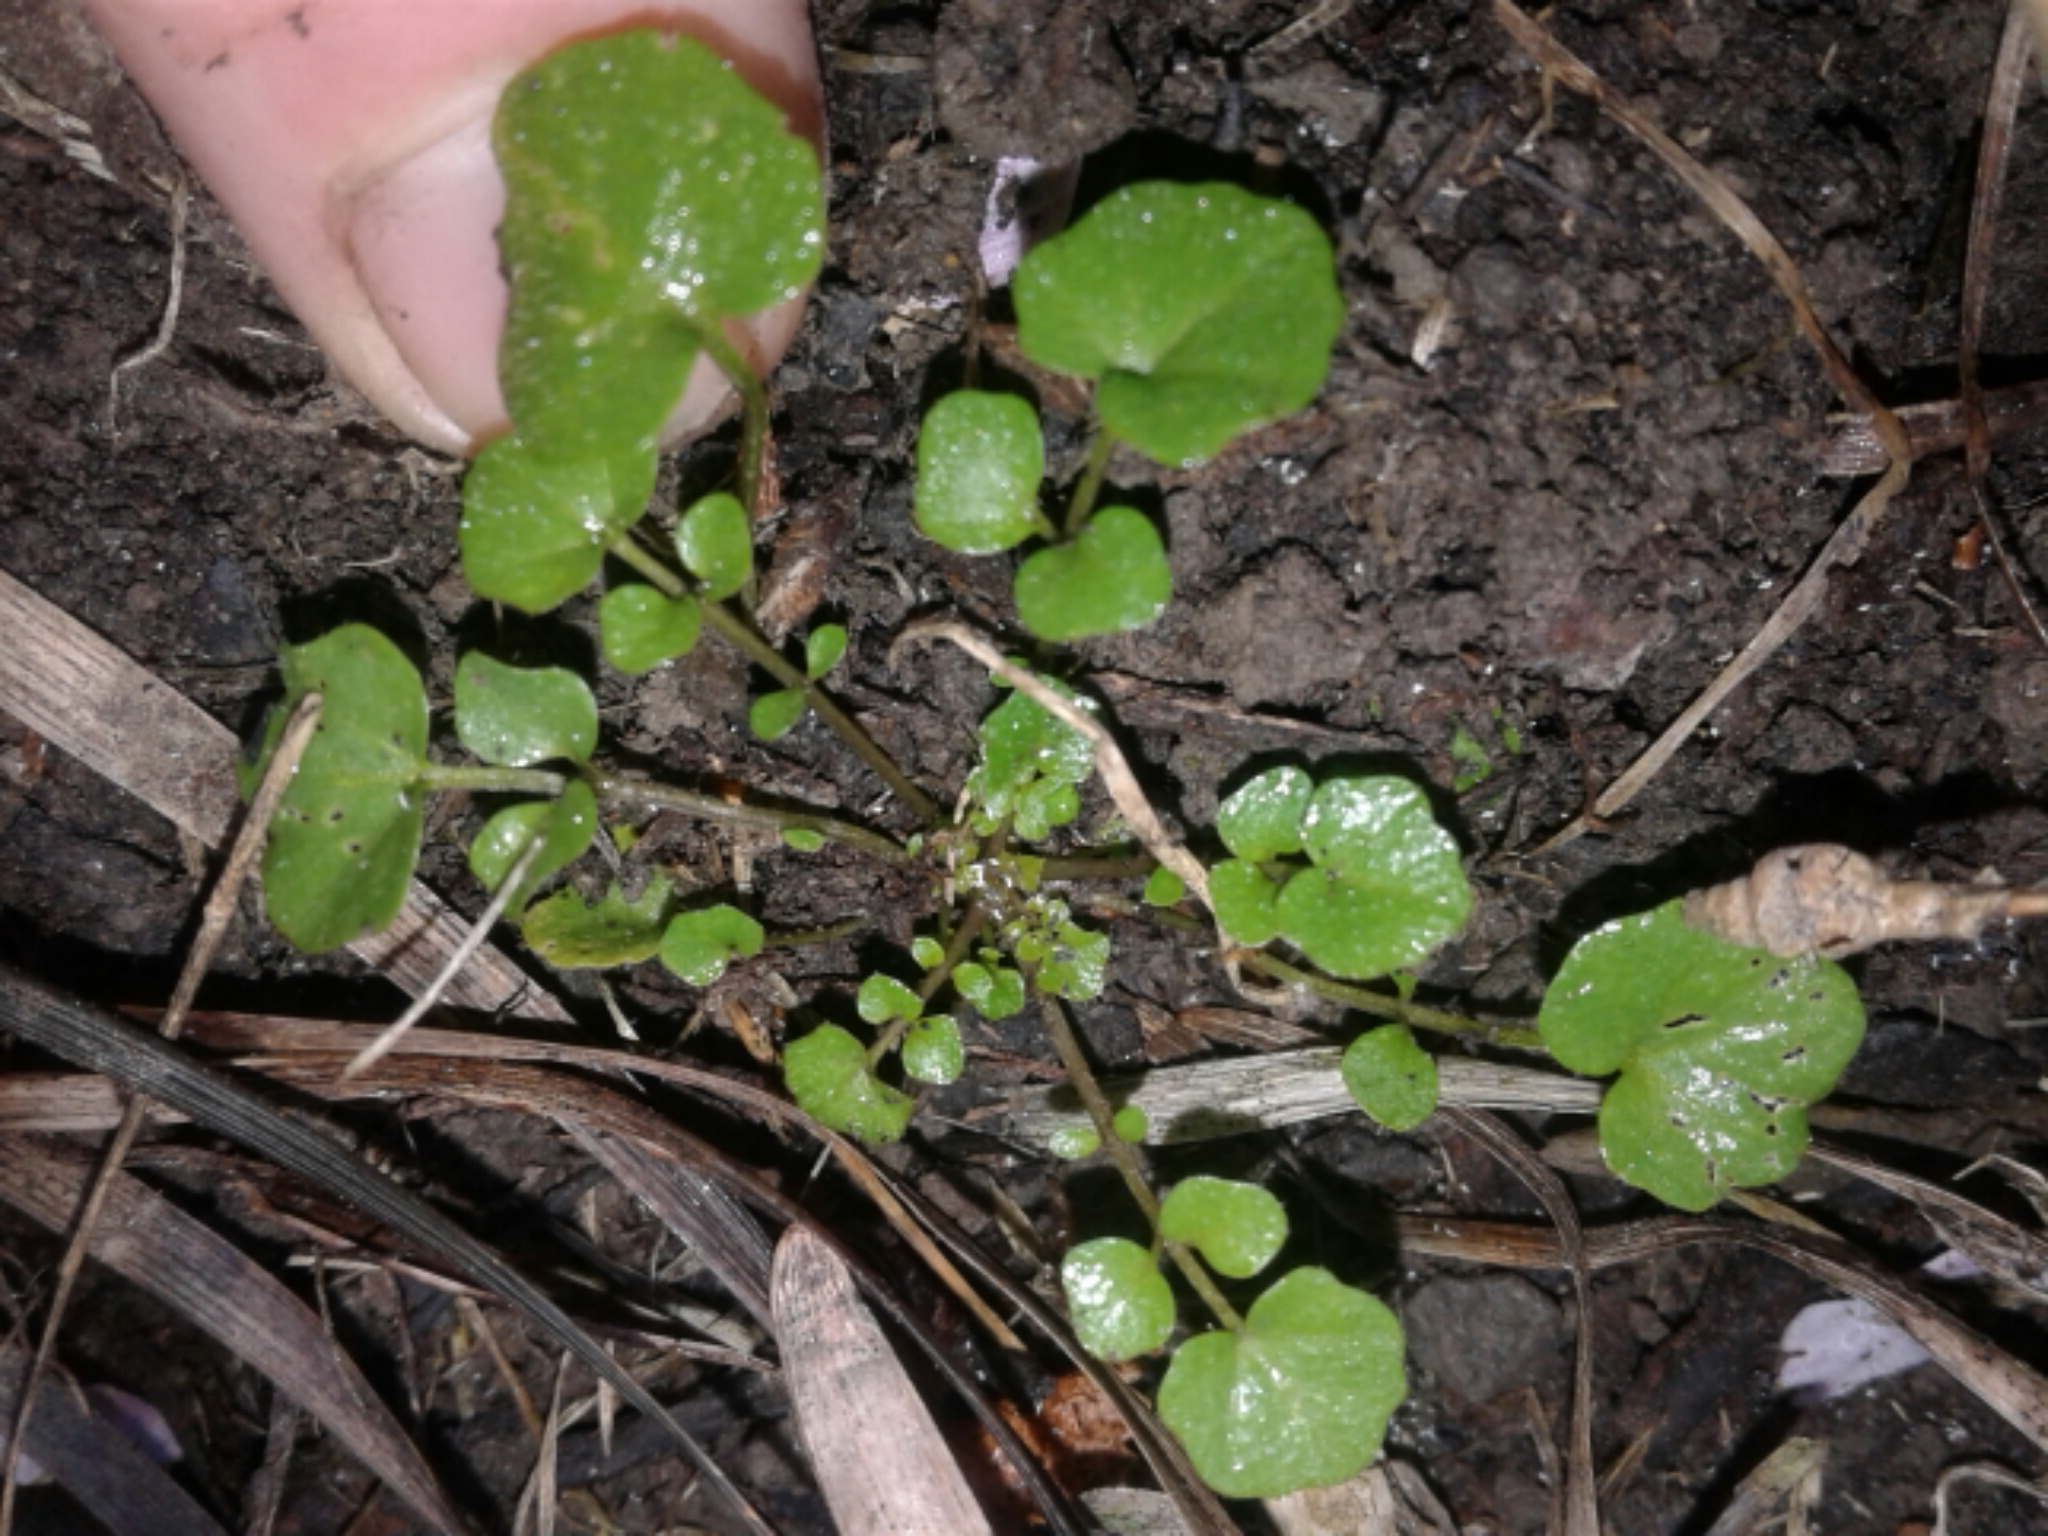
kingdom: Plantae
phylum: Tracheophyta
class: Magnoliopsida
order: Brassicales
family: Brassicaceae
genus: Cardamine
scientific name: Cardamine hirsuta
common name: Hairy bittercress
